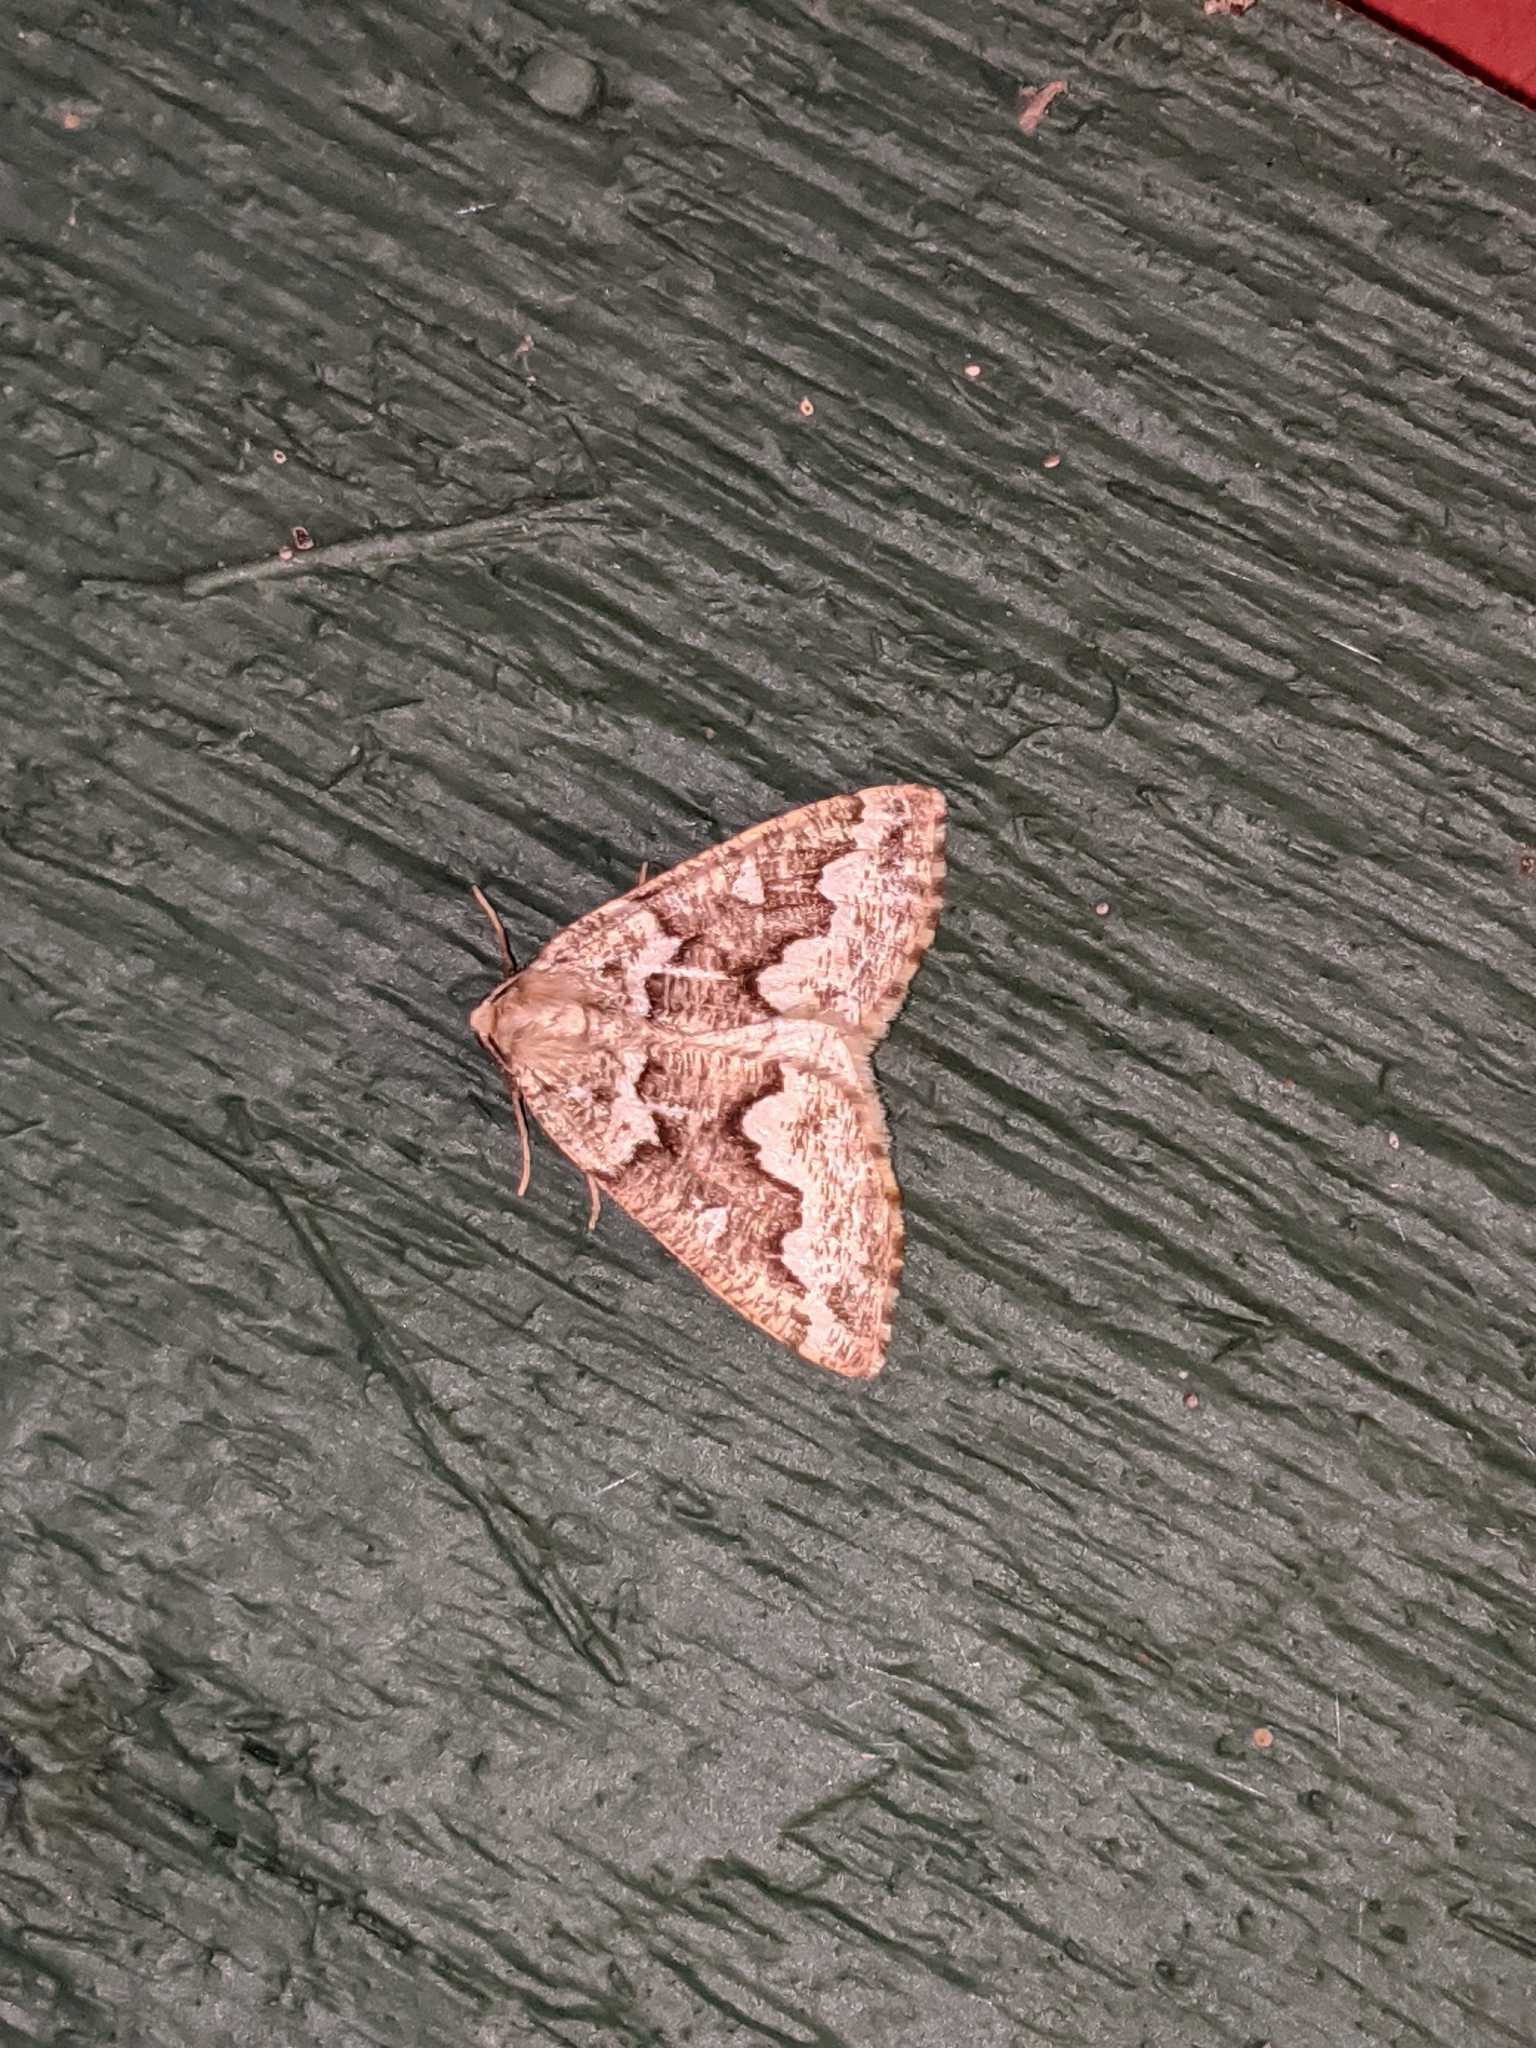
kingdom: Animalia
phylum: Arthropoda
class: Insecta
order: Lepidoptera
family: Geometridae
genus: Caripeta
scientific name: Caripeta divisata
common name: Gray spruce looper
